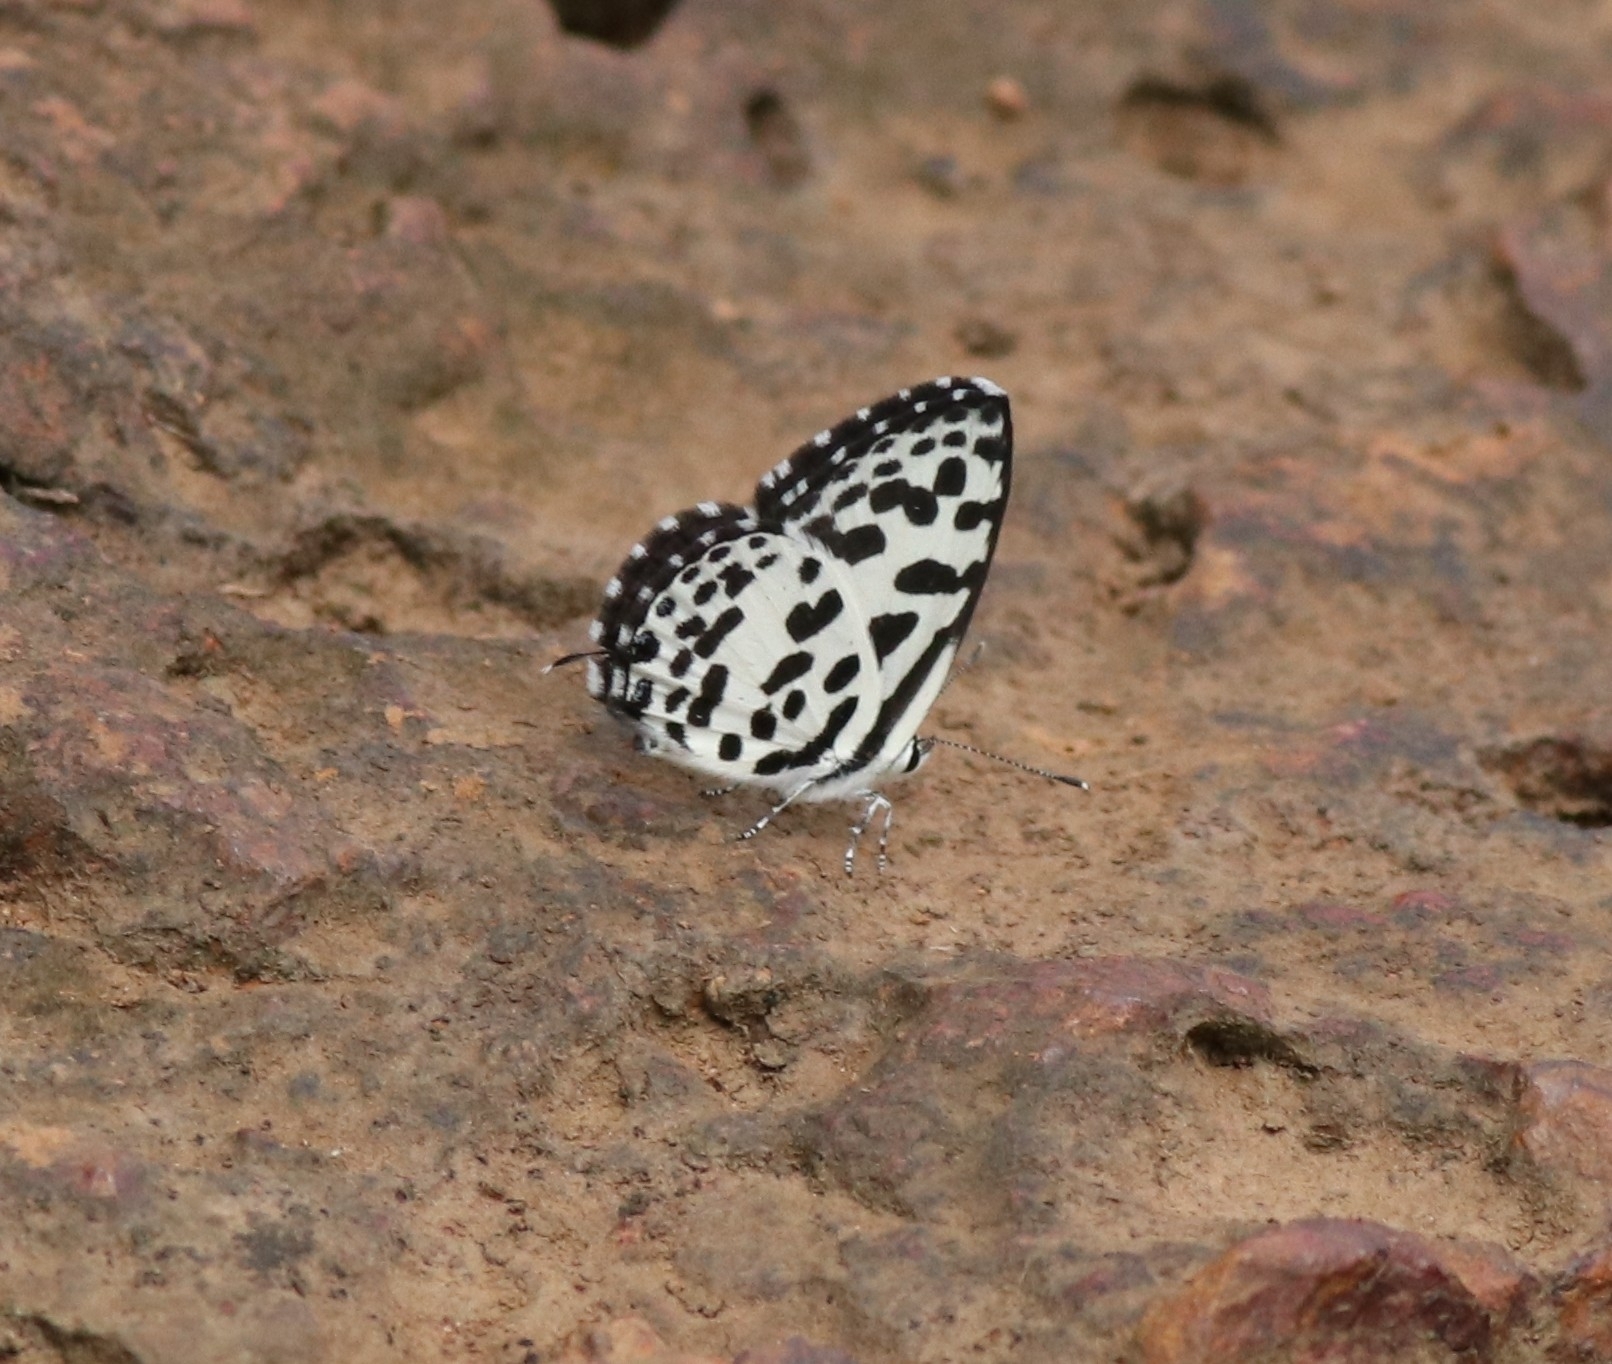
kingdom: Animalia
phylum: Arthropoda
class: Insecta
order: Lepidoptera
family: Lycaenidae
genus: Castalius
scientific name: Castalius rosimon
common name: Common pierrot
